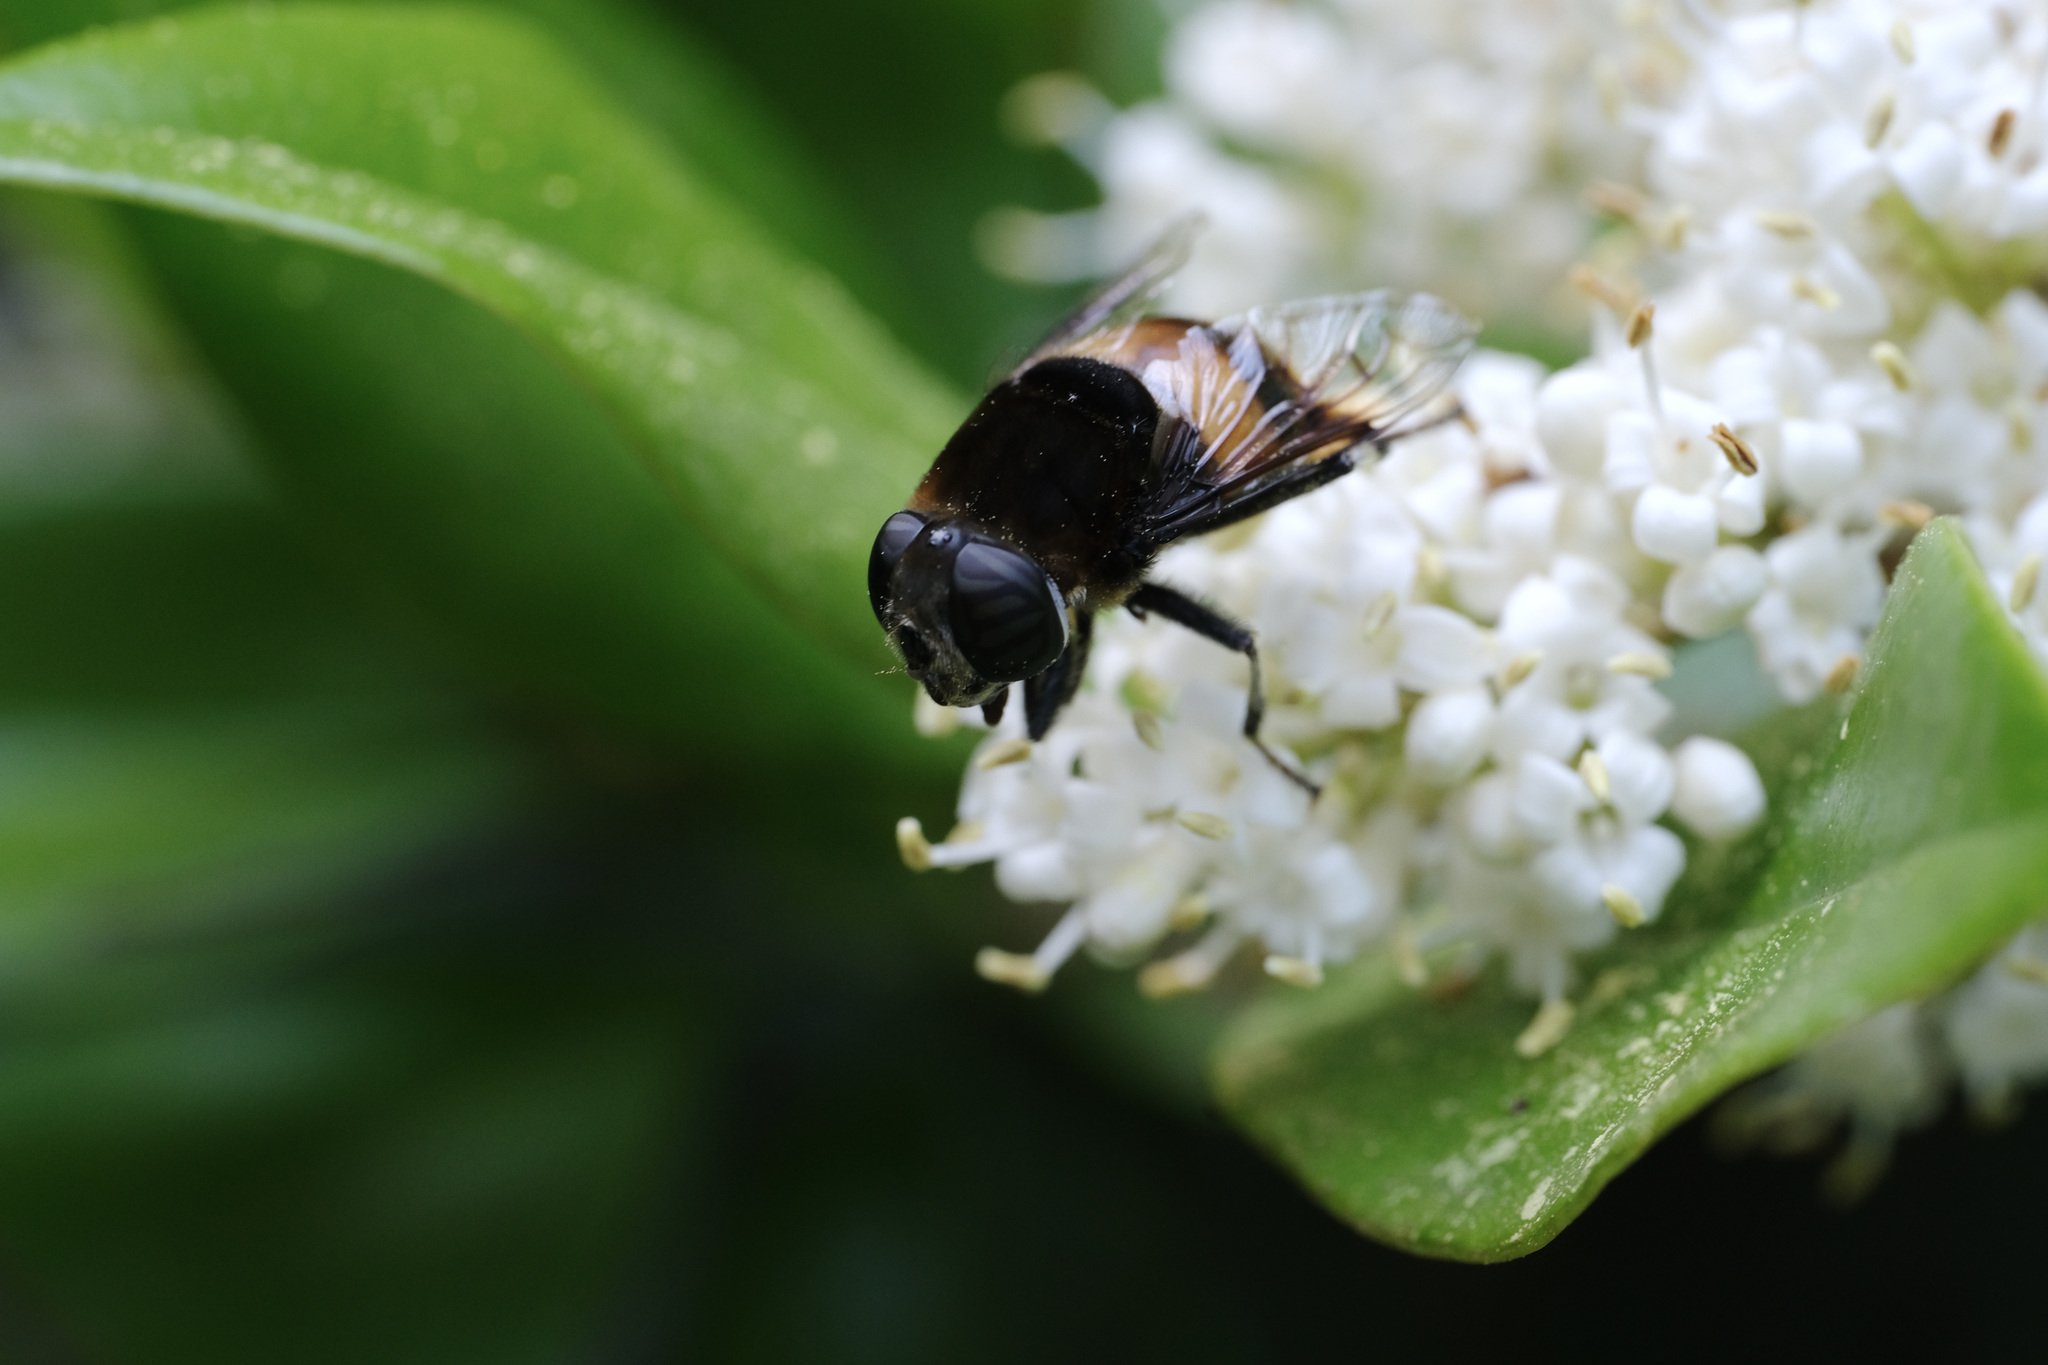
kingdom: Animalia
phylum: Arthropoda
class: Insecta
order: Diptera
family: Syrphidae
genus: Phytomia
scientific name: Phytomia zonata
